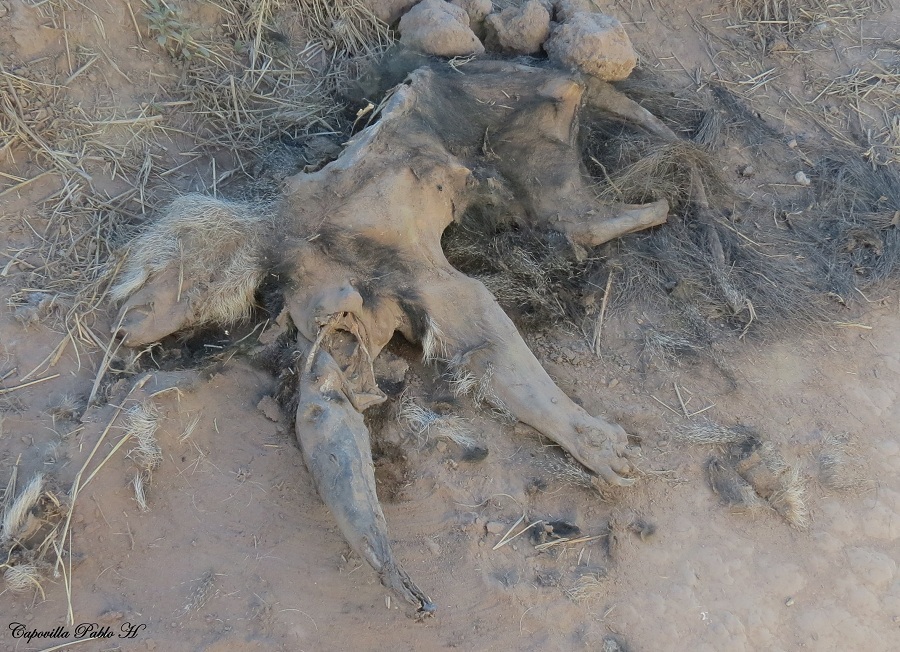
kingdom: Animalia
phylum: Chordata
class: Mammalia
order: Pilosa
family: Myrmecophagidae
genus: Myrmecophaga
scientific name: Myrmecophaga tridactyla
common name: Giant anteater
